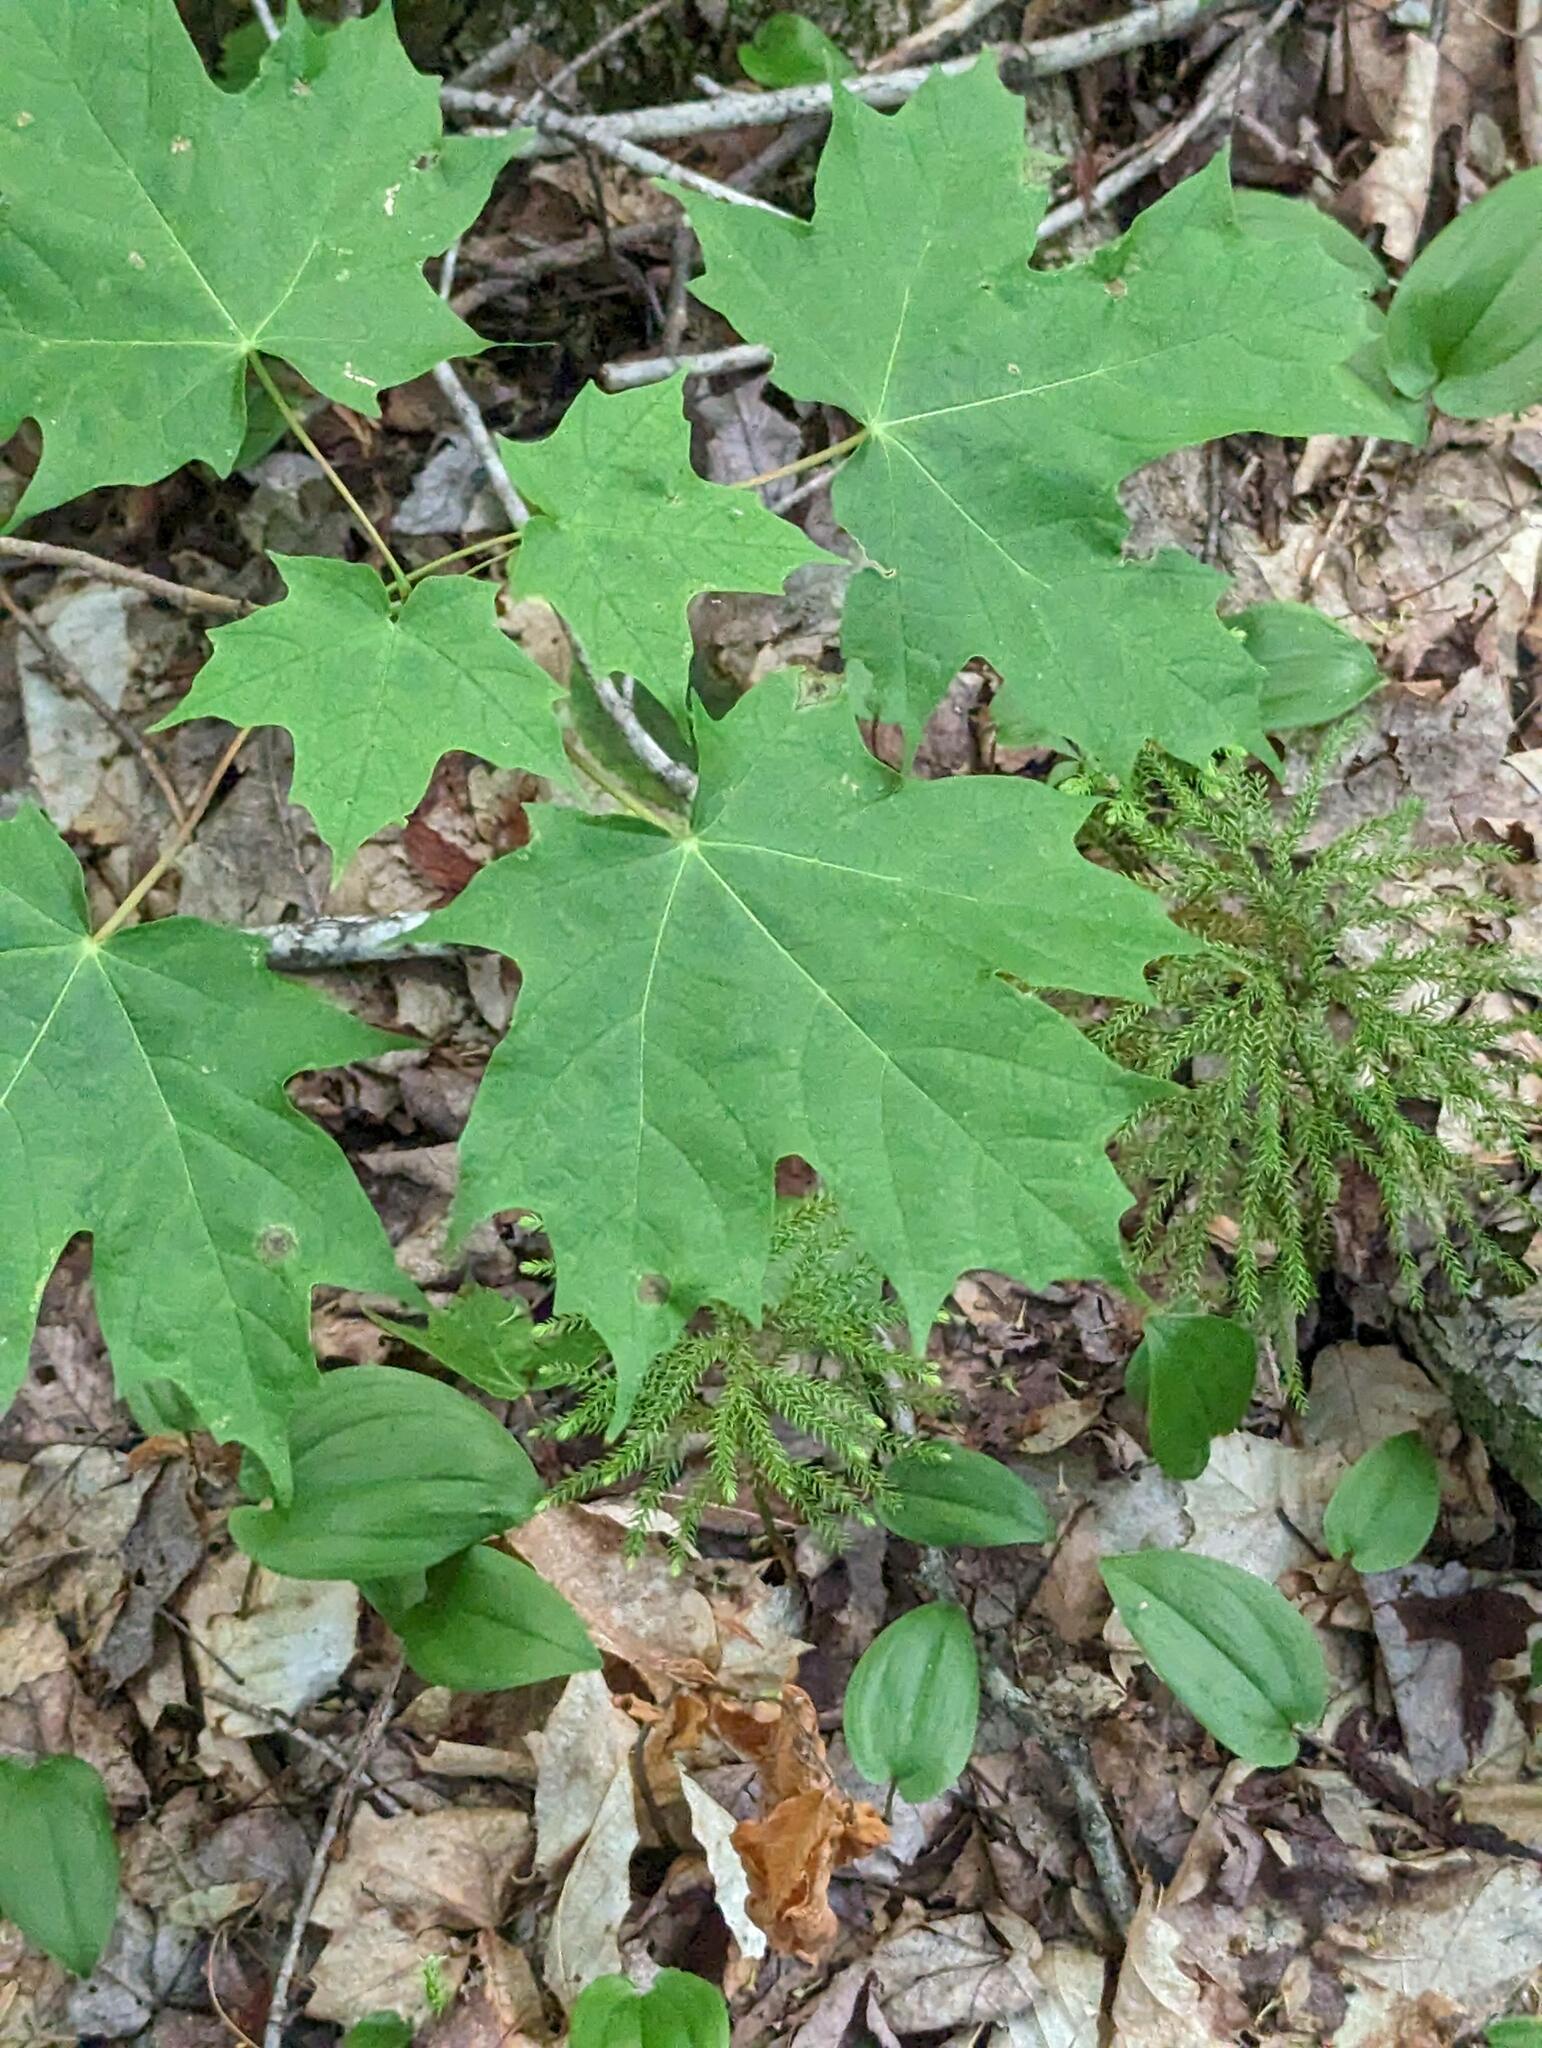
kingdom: Plantae
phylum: Tracheophyta
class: Liliopsida
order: Asparagales
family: Asparagaceae
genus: Maianthemum
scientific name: Maianthemum canadense
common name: False lily-of-the-valley
